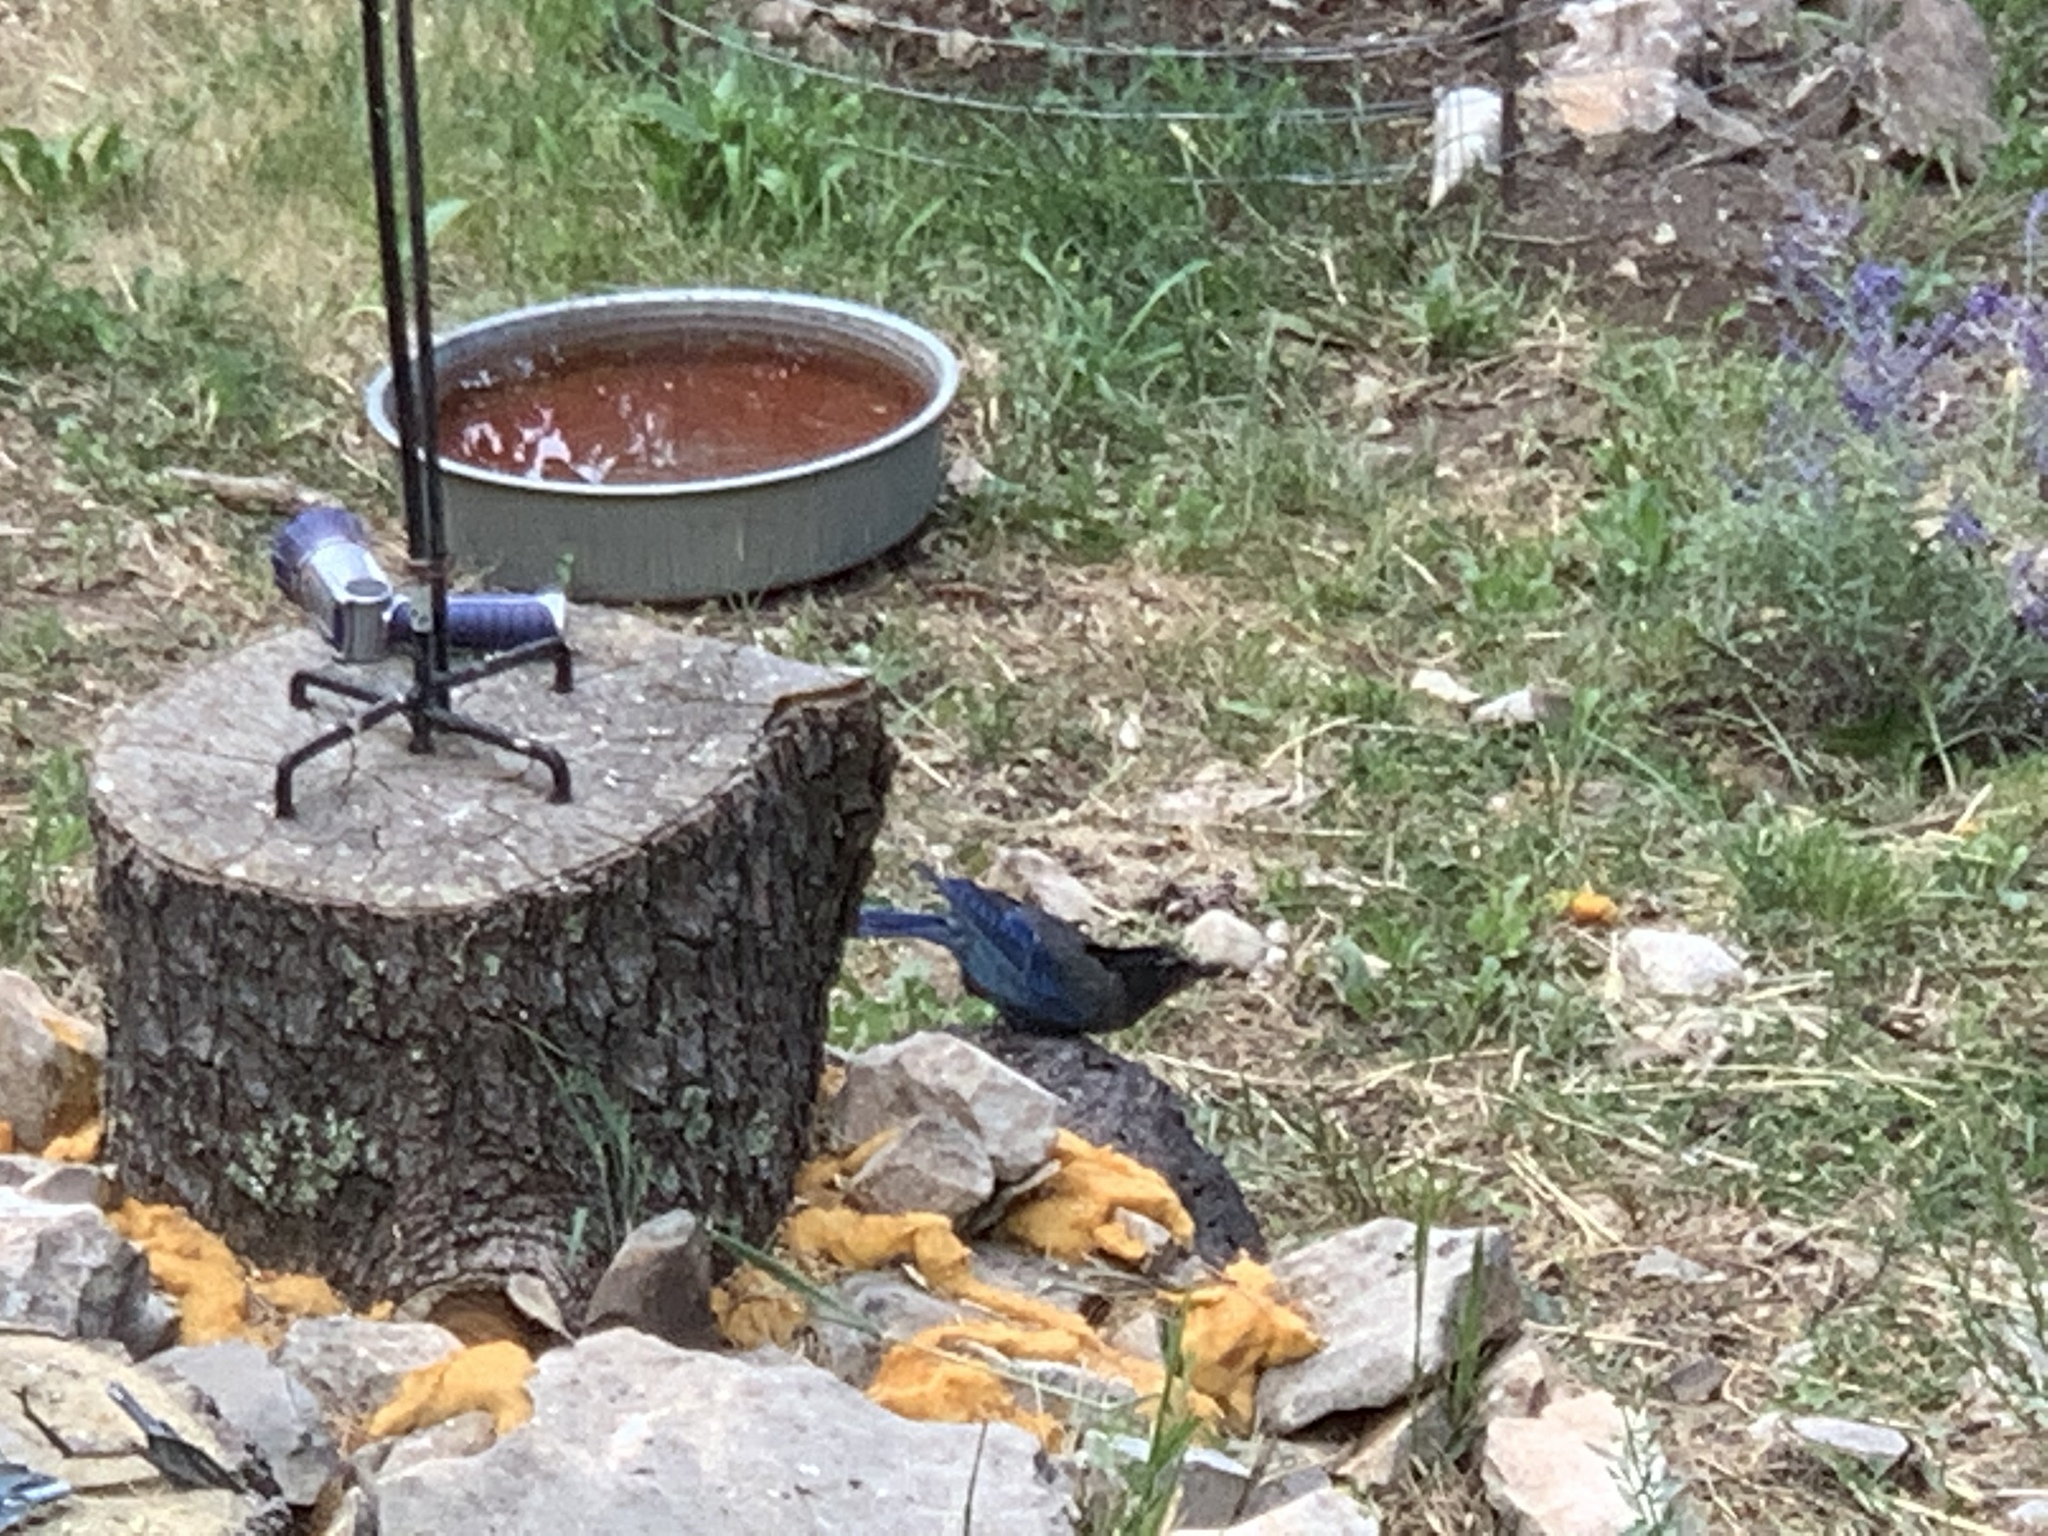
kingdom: Animalia
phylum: Chordata
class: Aves
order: Passeriformes
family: Corvidae
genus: Cyanocitta
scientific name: Cyanocitta stelleri
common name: Steller's jay
